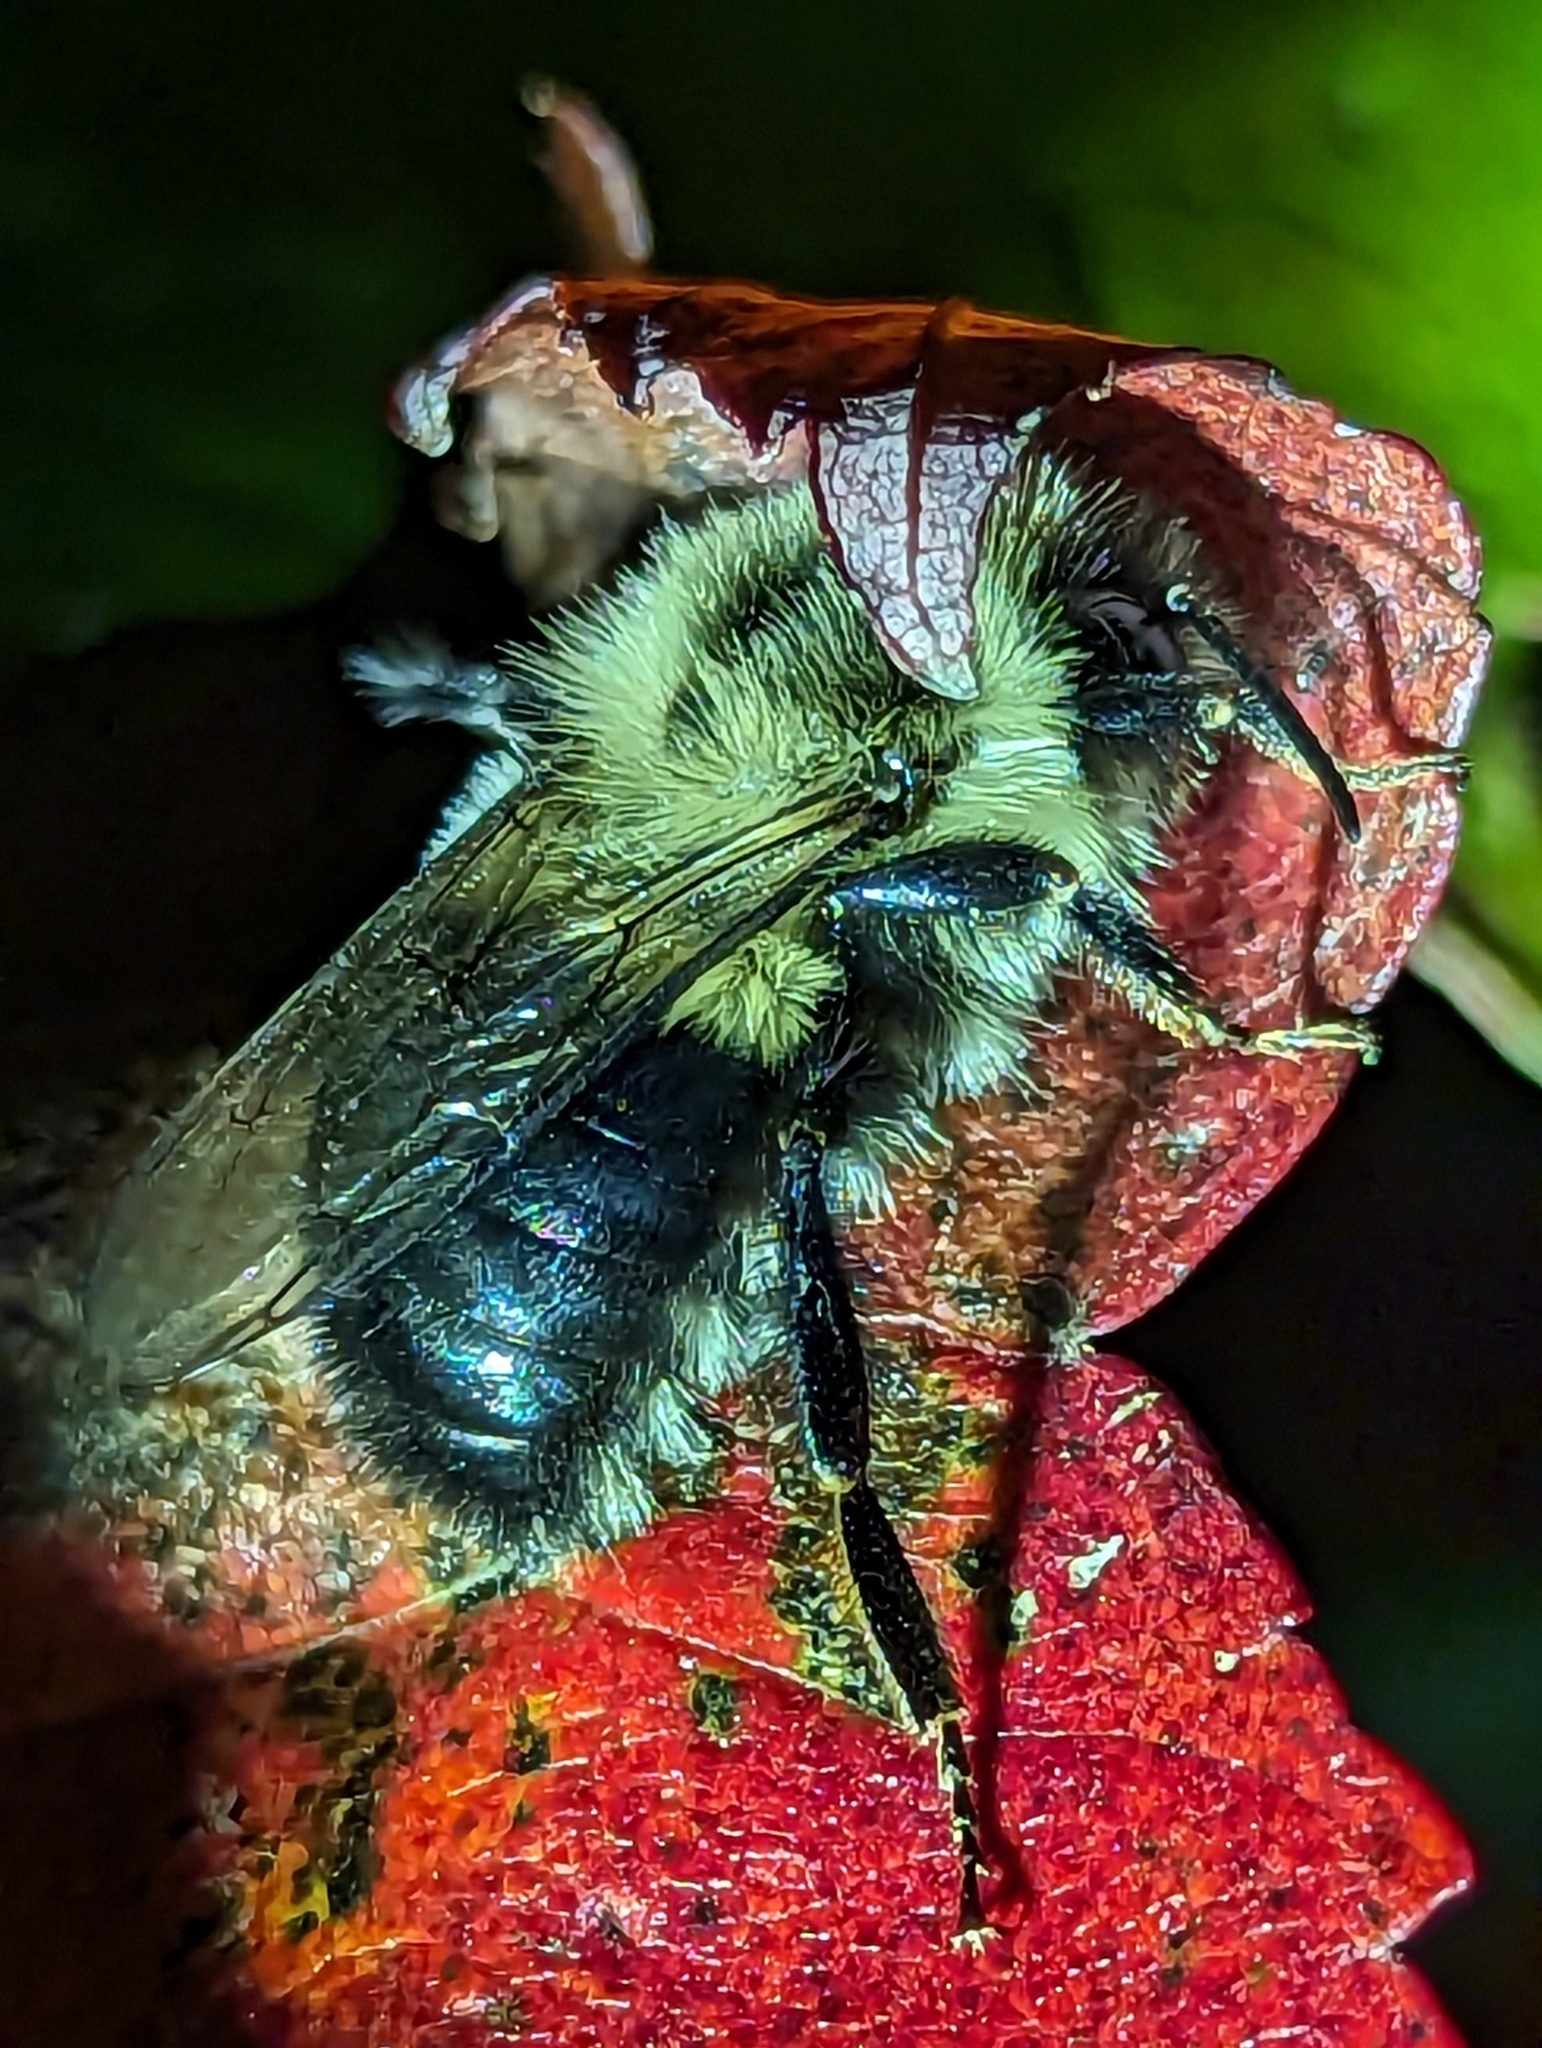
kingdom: Animalia
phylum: Arthropoda
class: Insecta
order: Hymenoptera
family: Apidae
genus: Bombus
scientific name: Bombus impatiens
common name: Common eastern bumble bee
